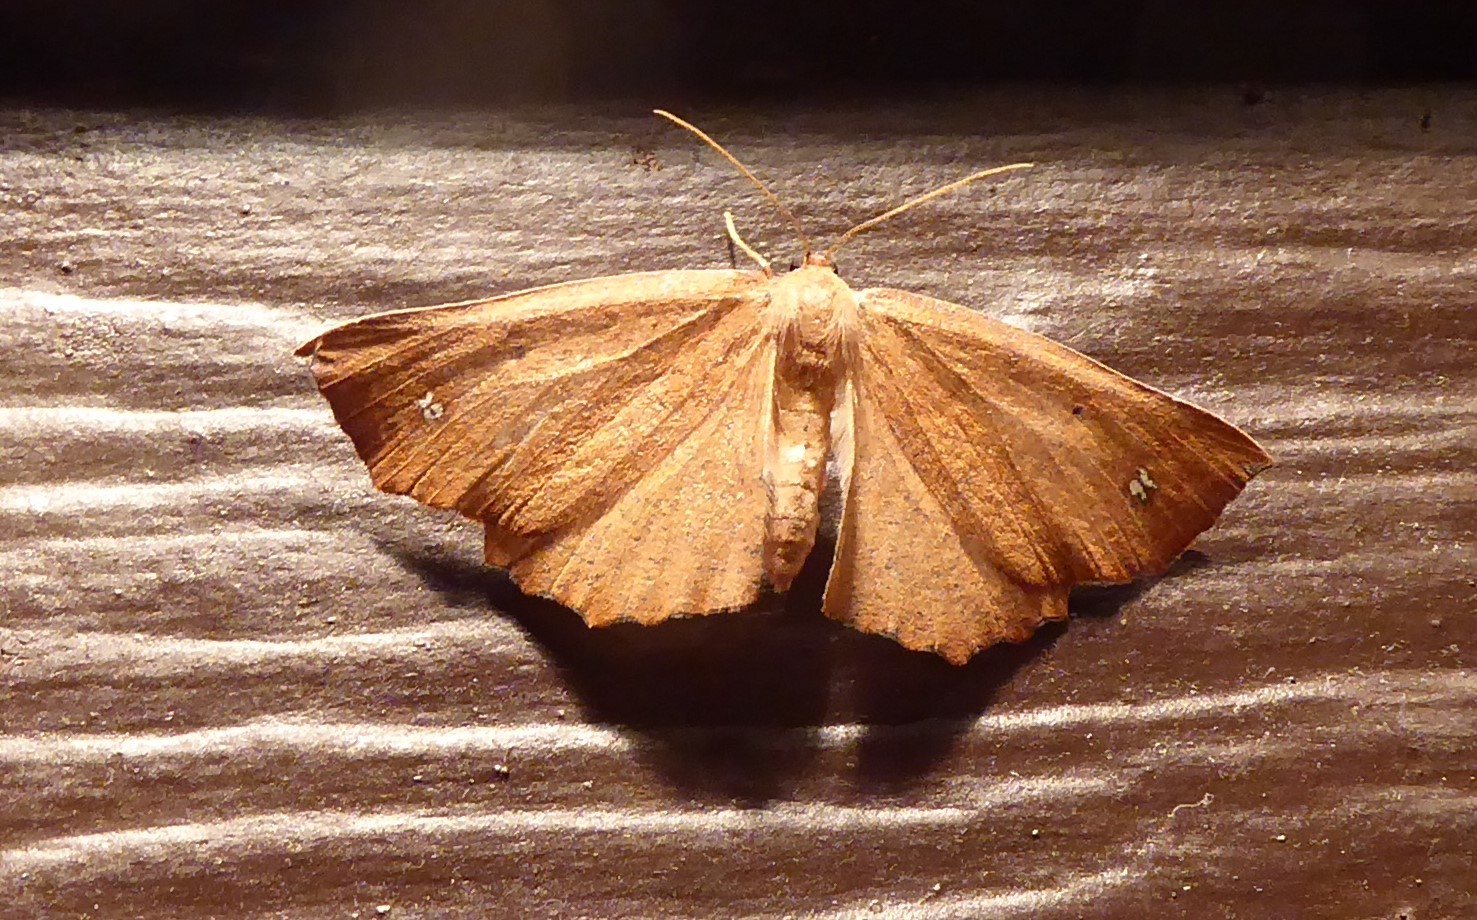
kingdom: Animalia
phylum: Arthropoda
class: Insecta
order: Lepidoptera
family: Geometridae
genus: Xyridacma
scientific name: Xyridacma ustaria
